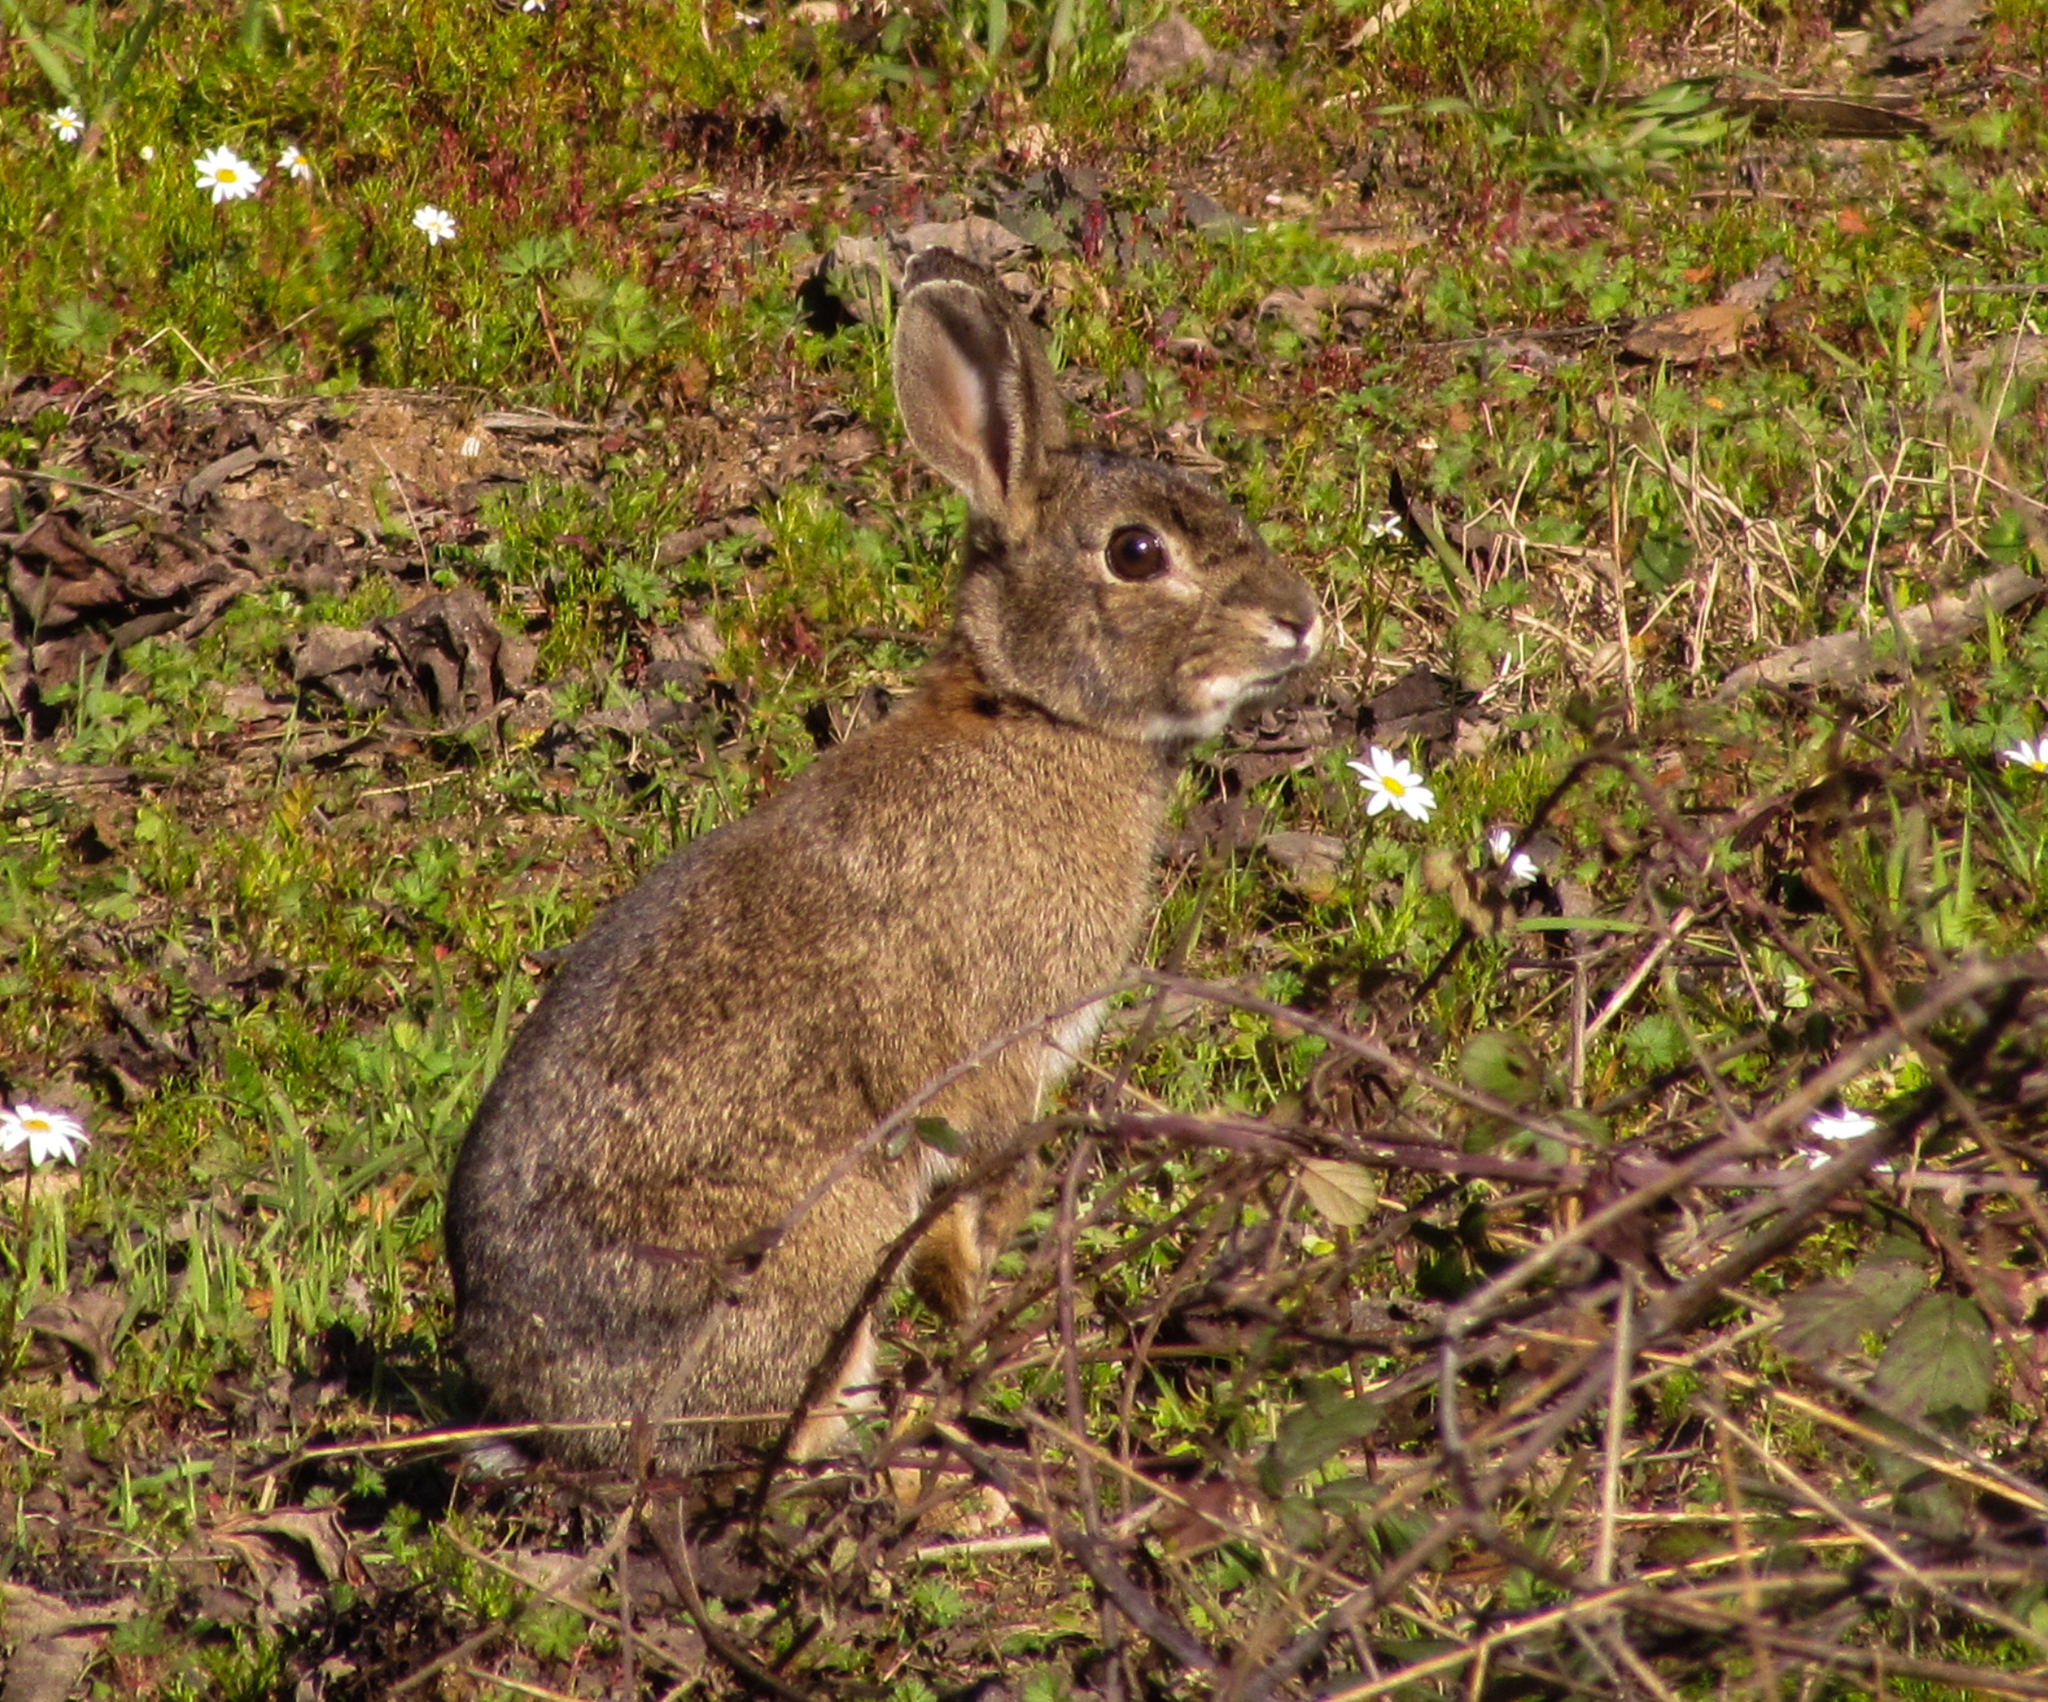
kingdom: Animalia
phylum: Chordata
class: Mammalia
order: Lagomorpha
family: Leporidae
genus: Oryctolagus
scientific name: Oryctolagus cuniculus
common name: European rabbit
